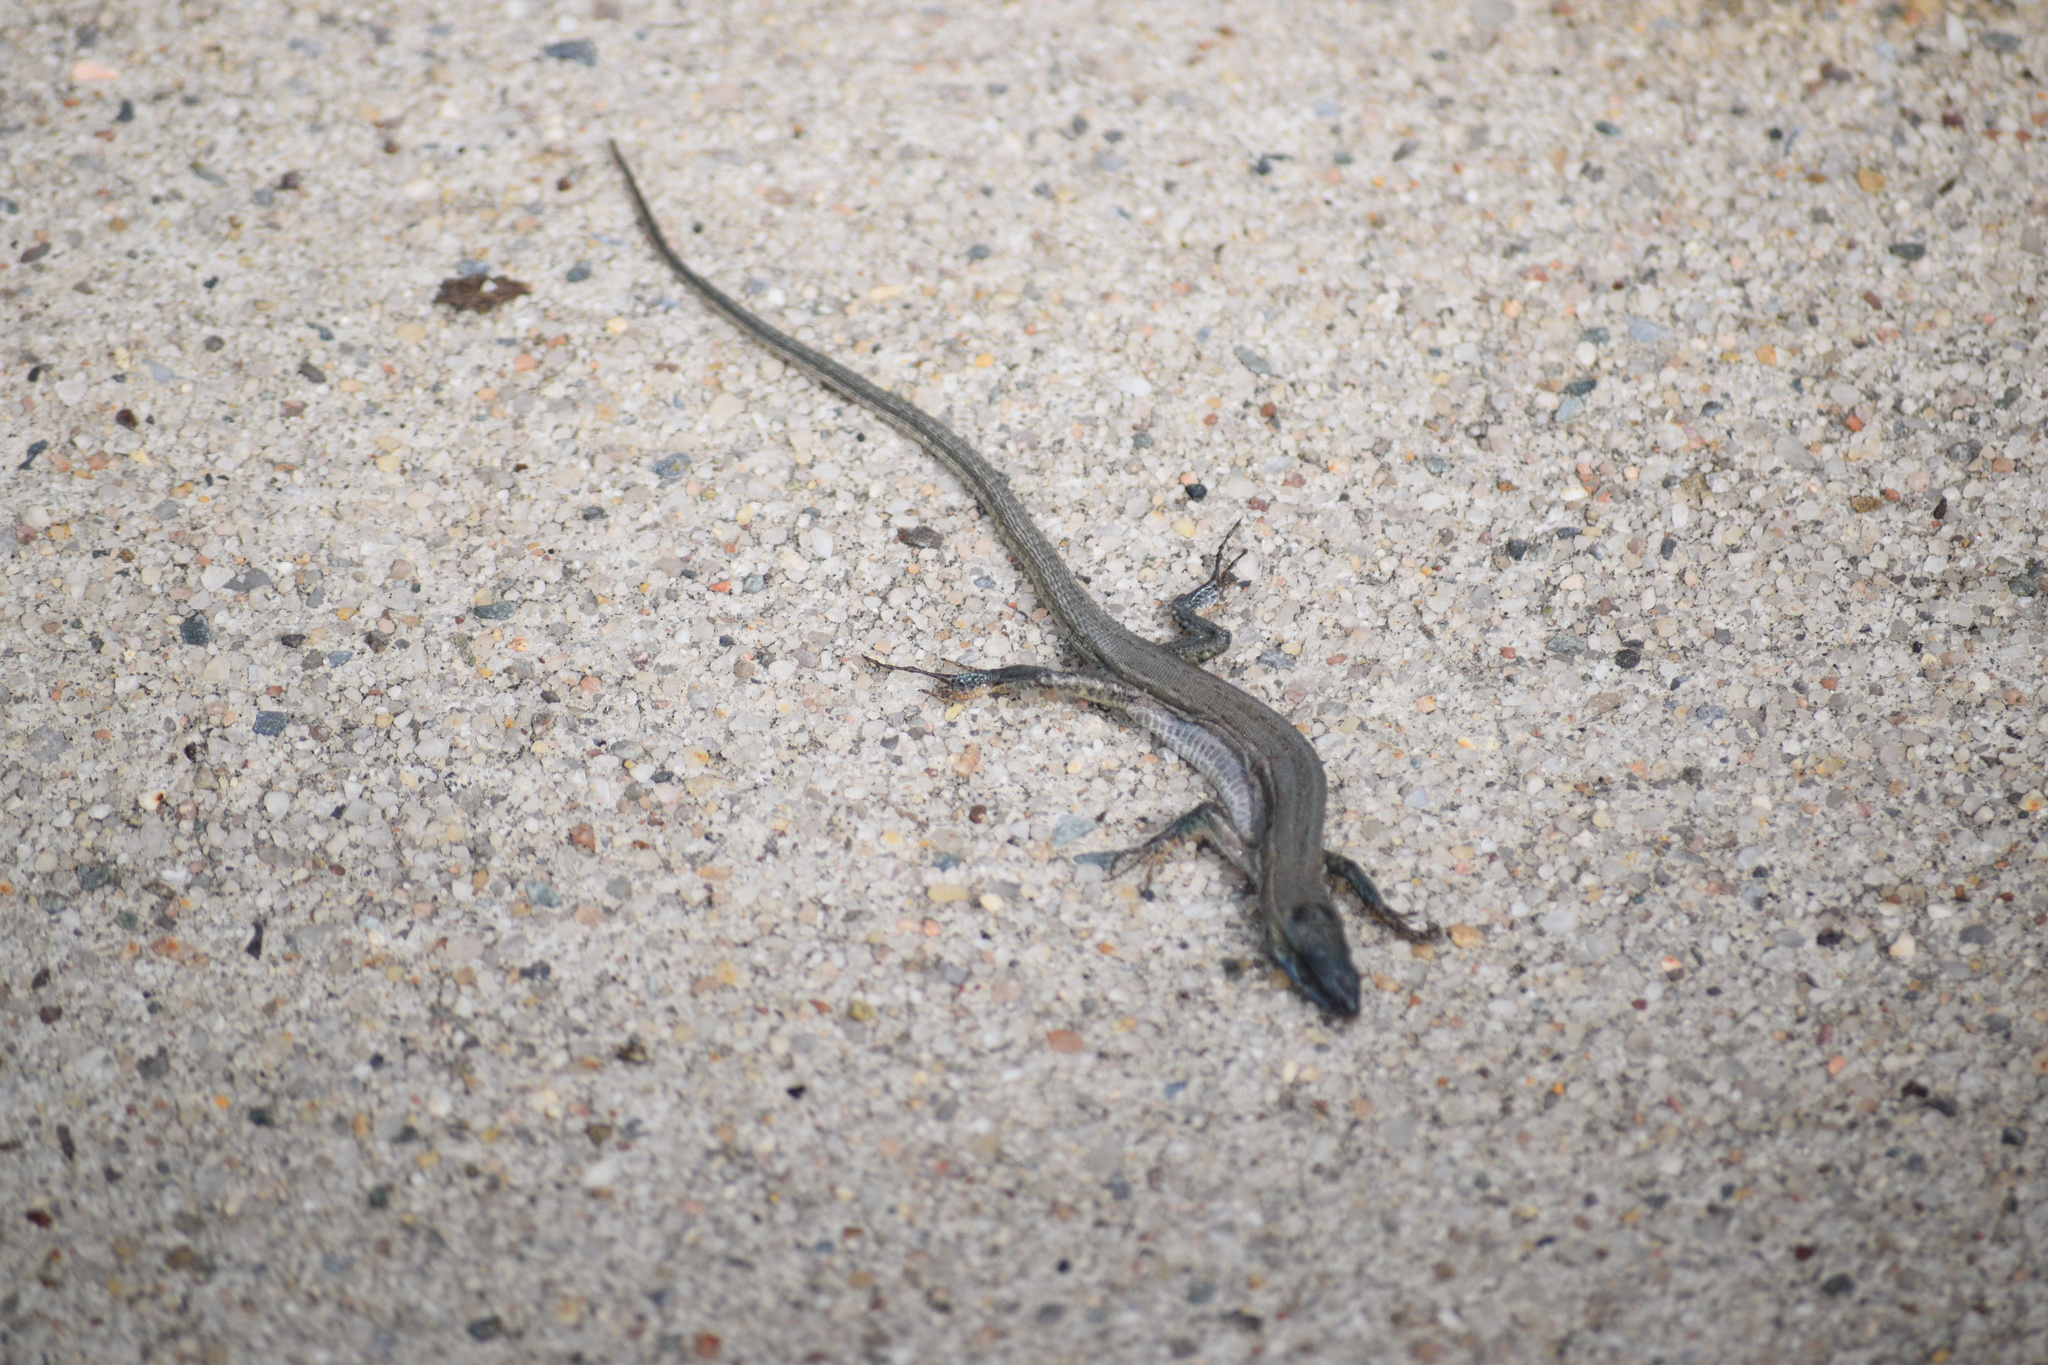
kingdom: Animalia
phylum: Chordata
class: Squamata
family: Lacertidae
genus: Podarcis
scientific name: Podarcis siculus
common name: Italian wall lizard
